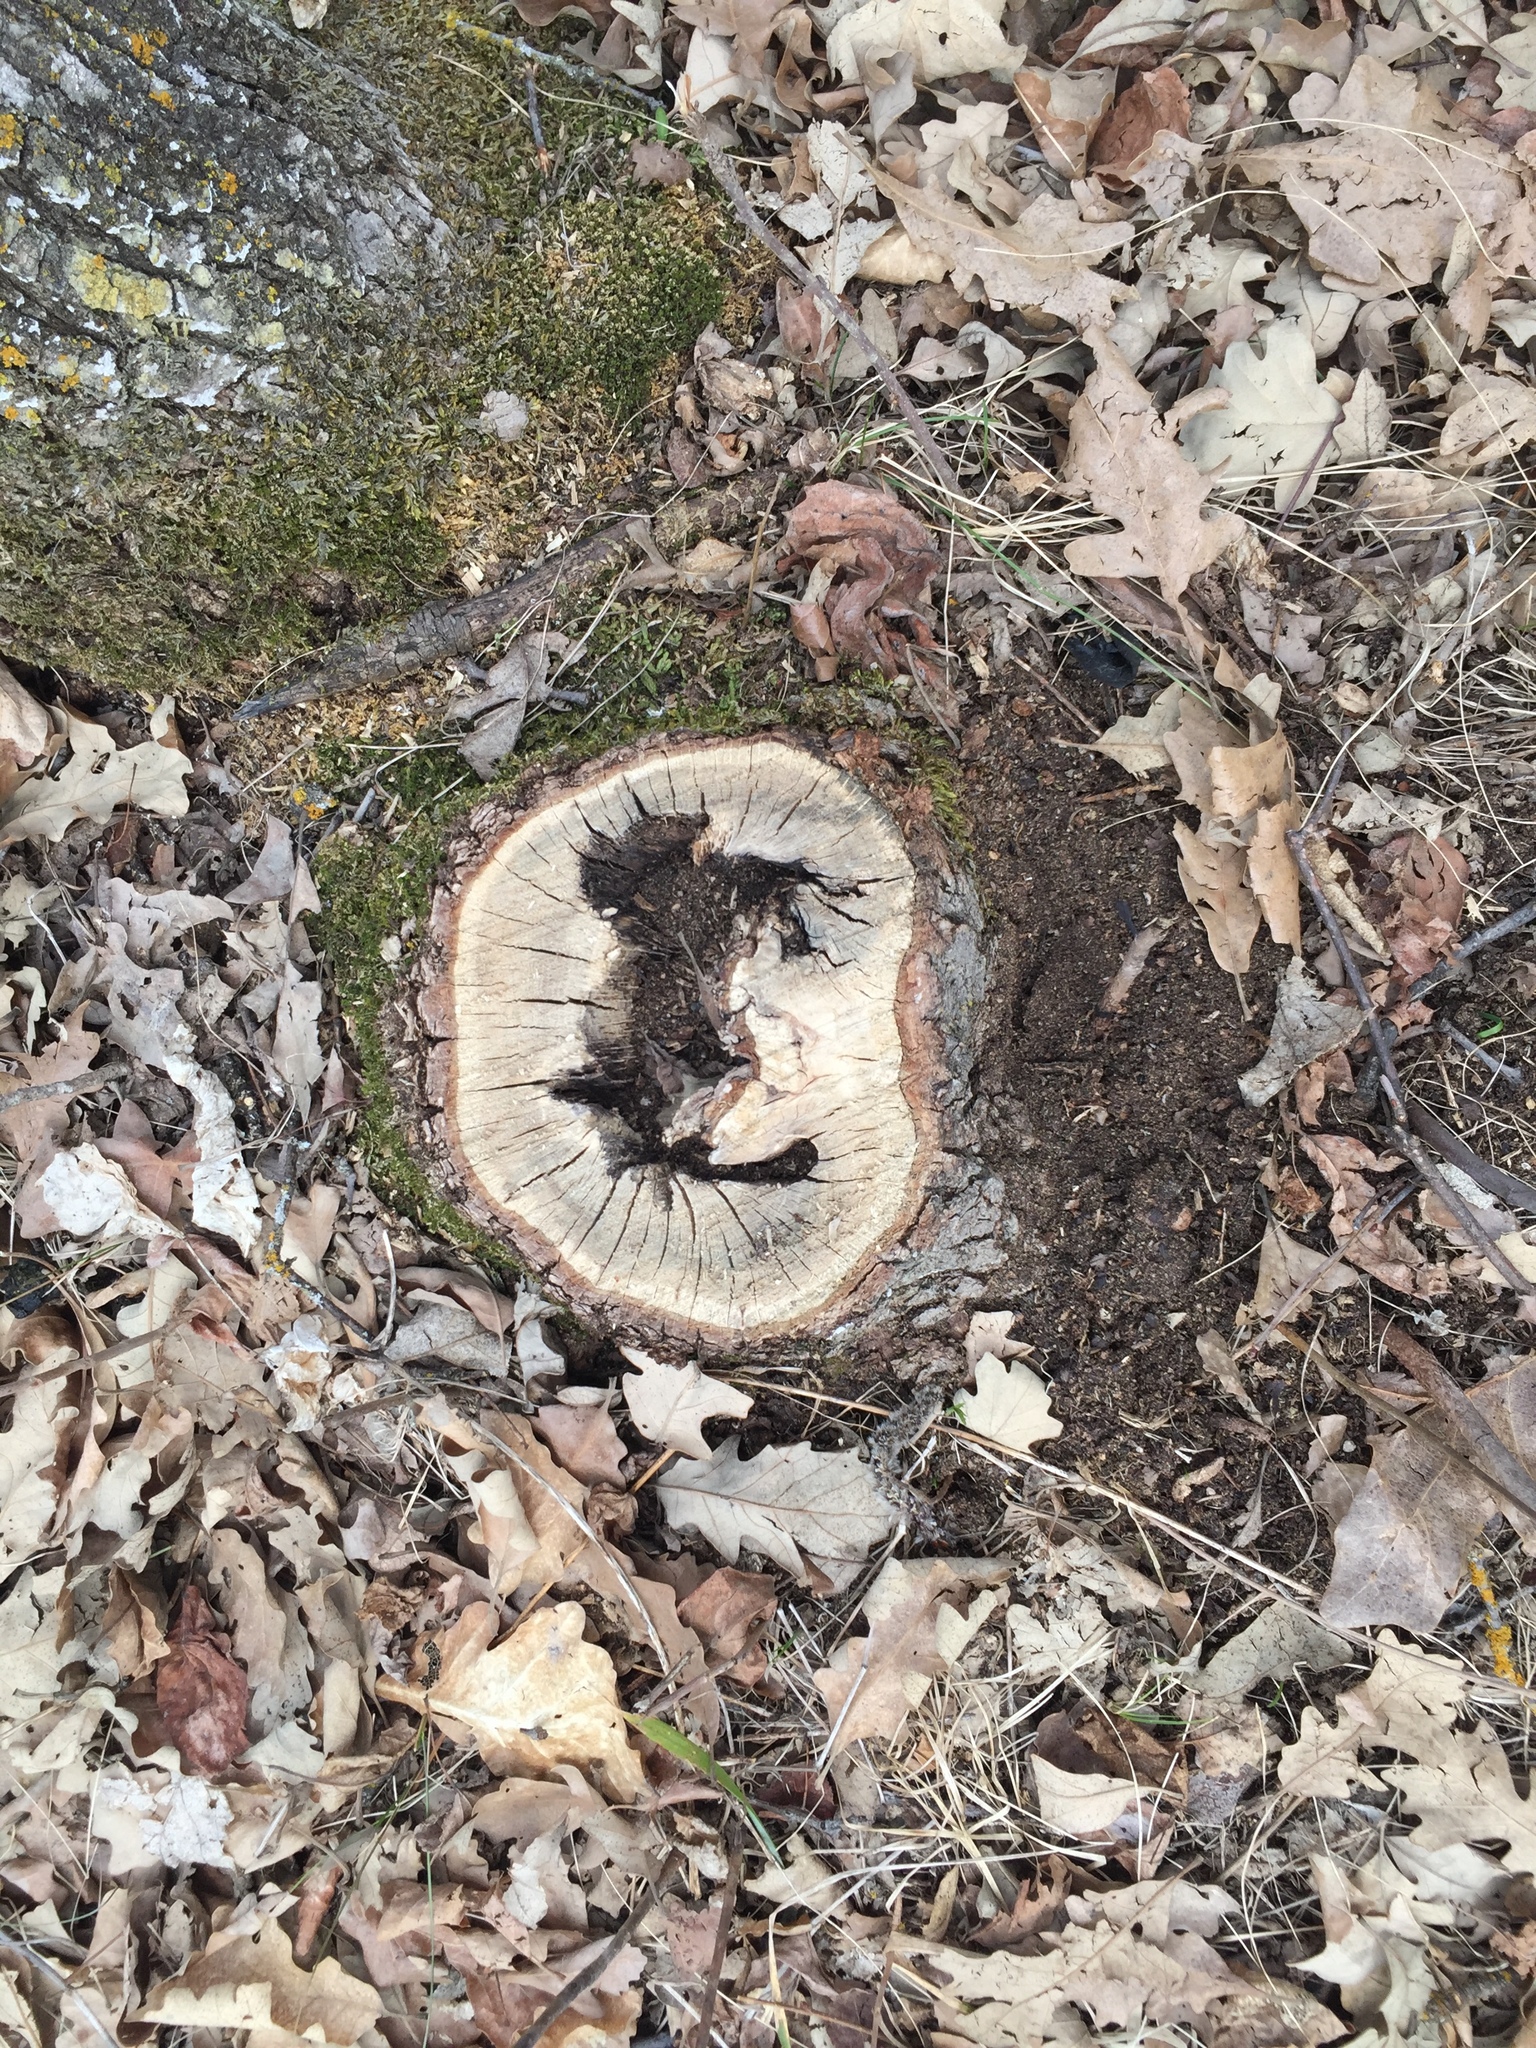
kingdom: Plantae
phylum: Tracheophyta
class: Magnoliopsida
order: Fagales
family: Fagaceae
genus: Quercus
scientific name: Quercus macrocarpa
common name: Bur oak
